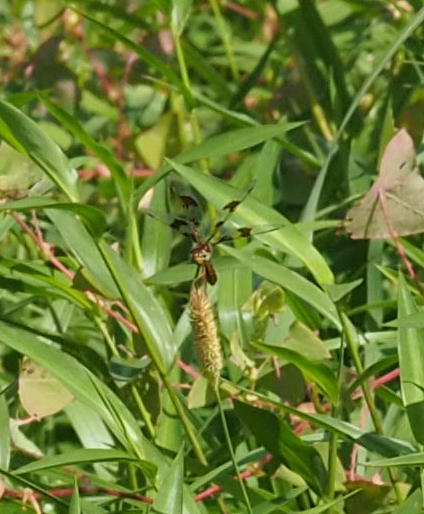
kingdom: Animalia
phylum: Arthropoda
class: Insecta
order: Odonata
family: Libellulidae
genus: Perithemis
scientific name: Perithemis tenera
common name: Eastern amberwing
